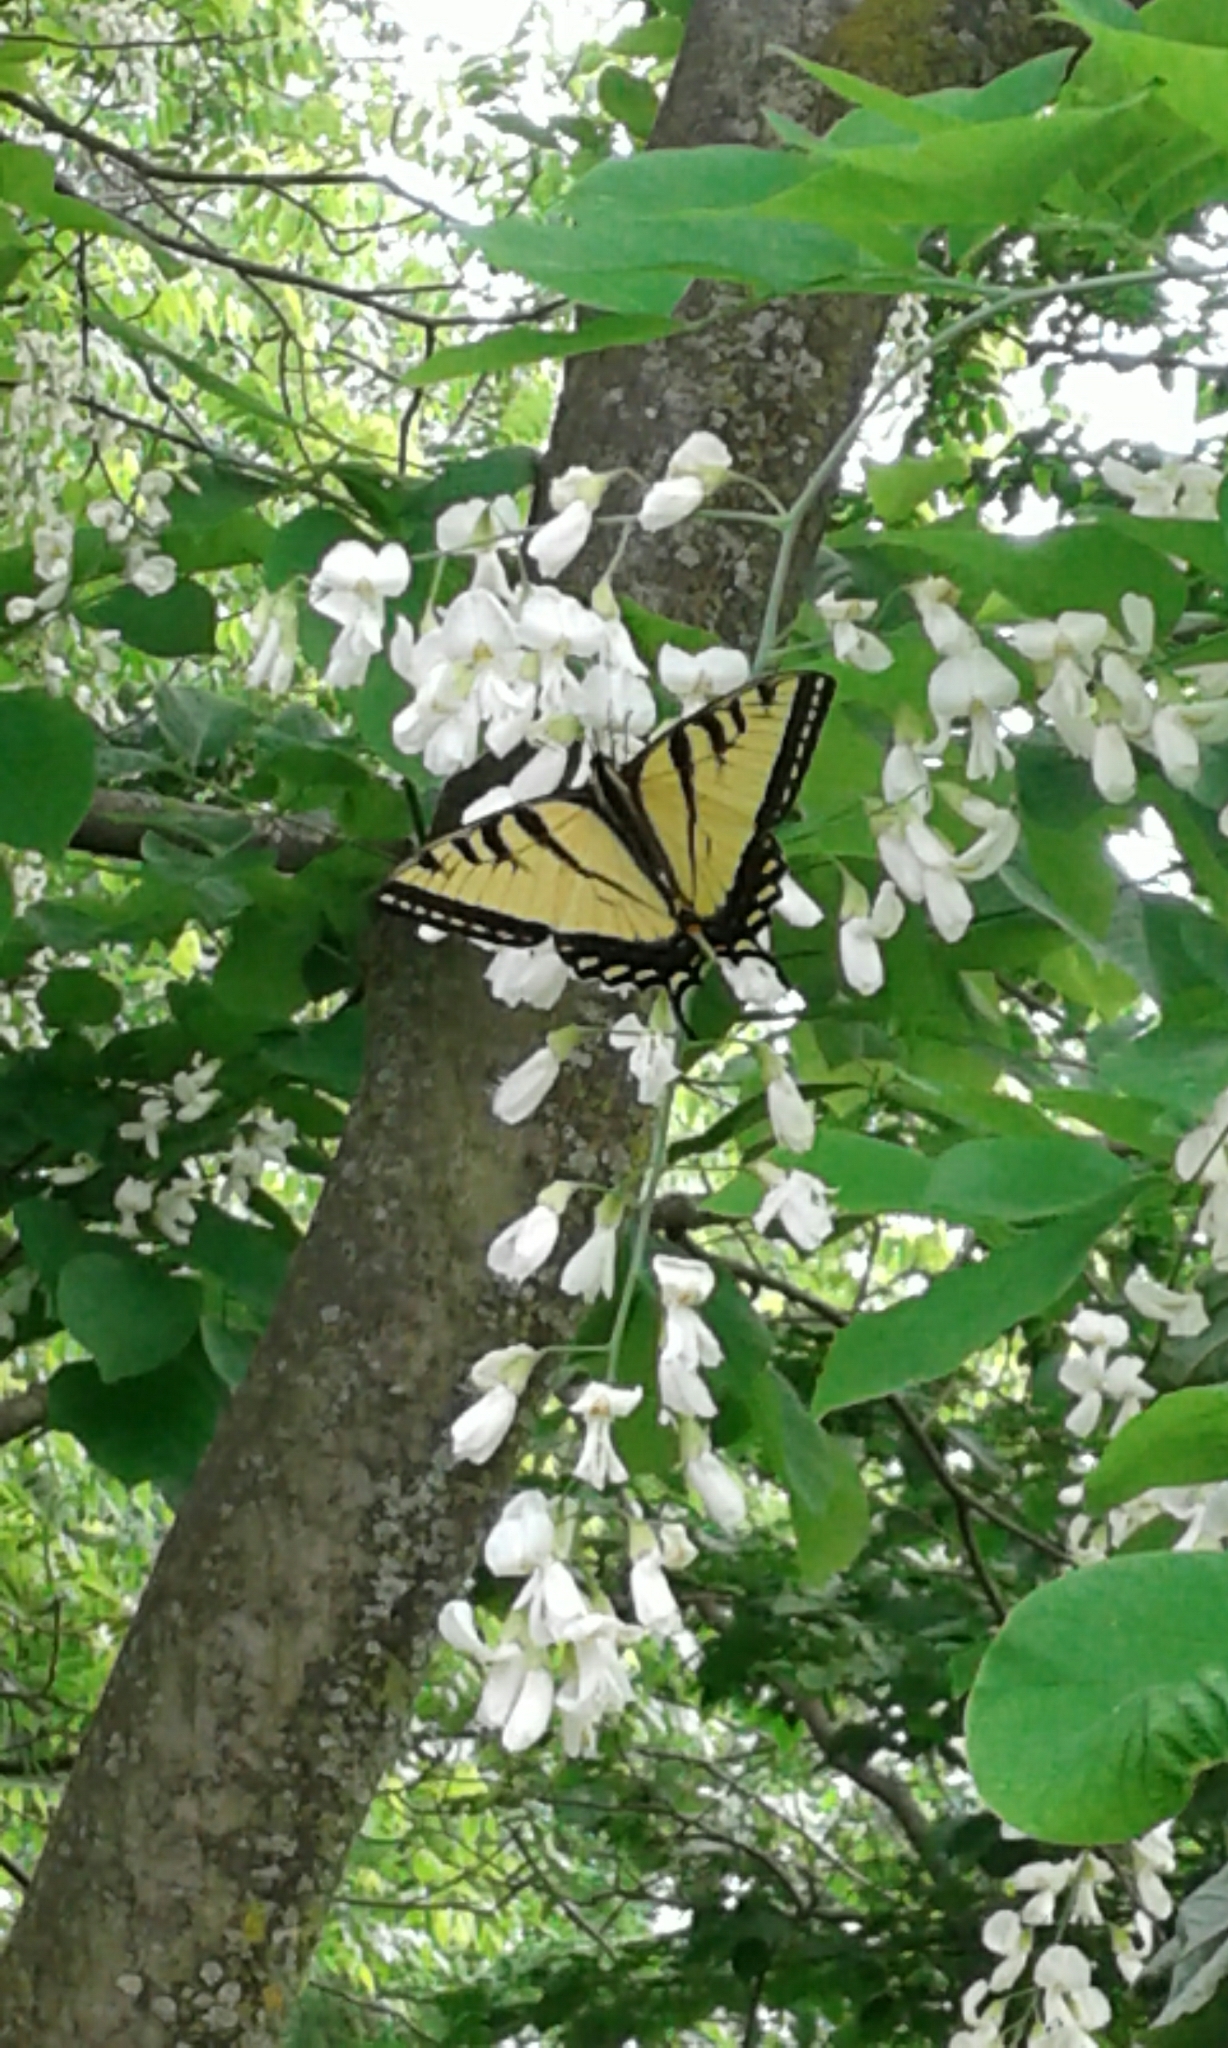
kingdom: Animalia
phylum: Arthropoda
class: Insecta
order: Lepidoptera
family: Papilionidae
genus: Papilio
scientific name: Papilio glaucus
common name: Tiger swallowtail
